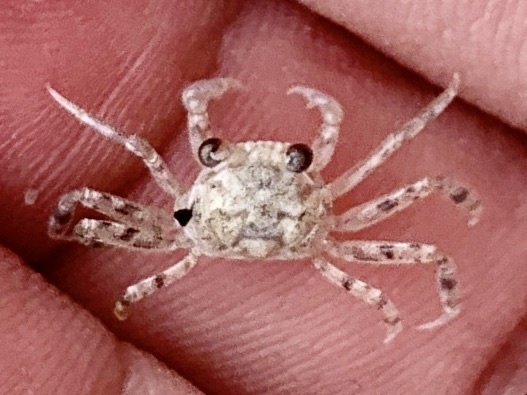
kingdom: Animalia
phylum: Arthropoda
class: Malacostraca
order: Decapoda
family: Ocypodidae
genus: Ocypode
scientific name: Ocypode quadrata
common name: Ghost crab
